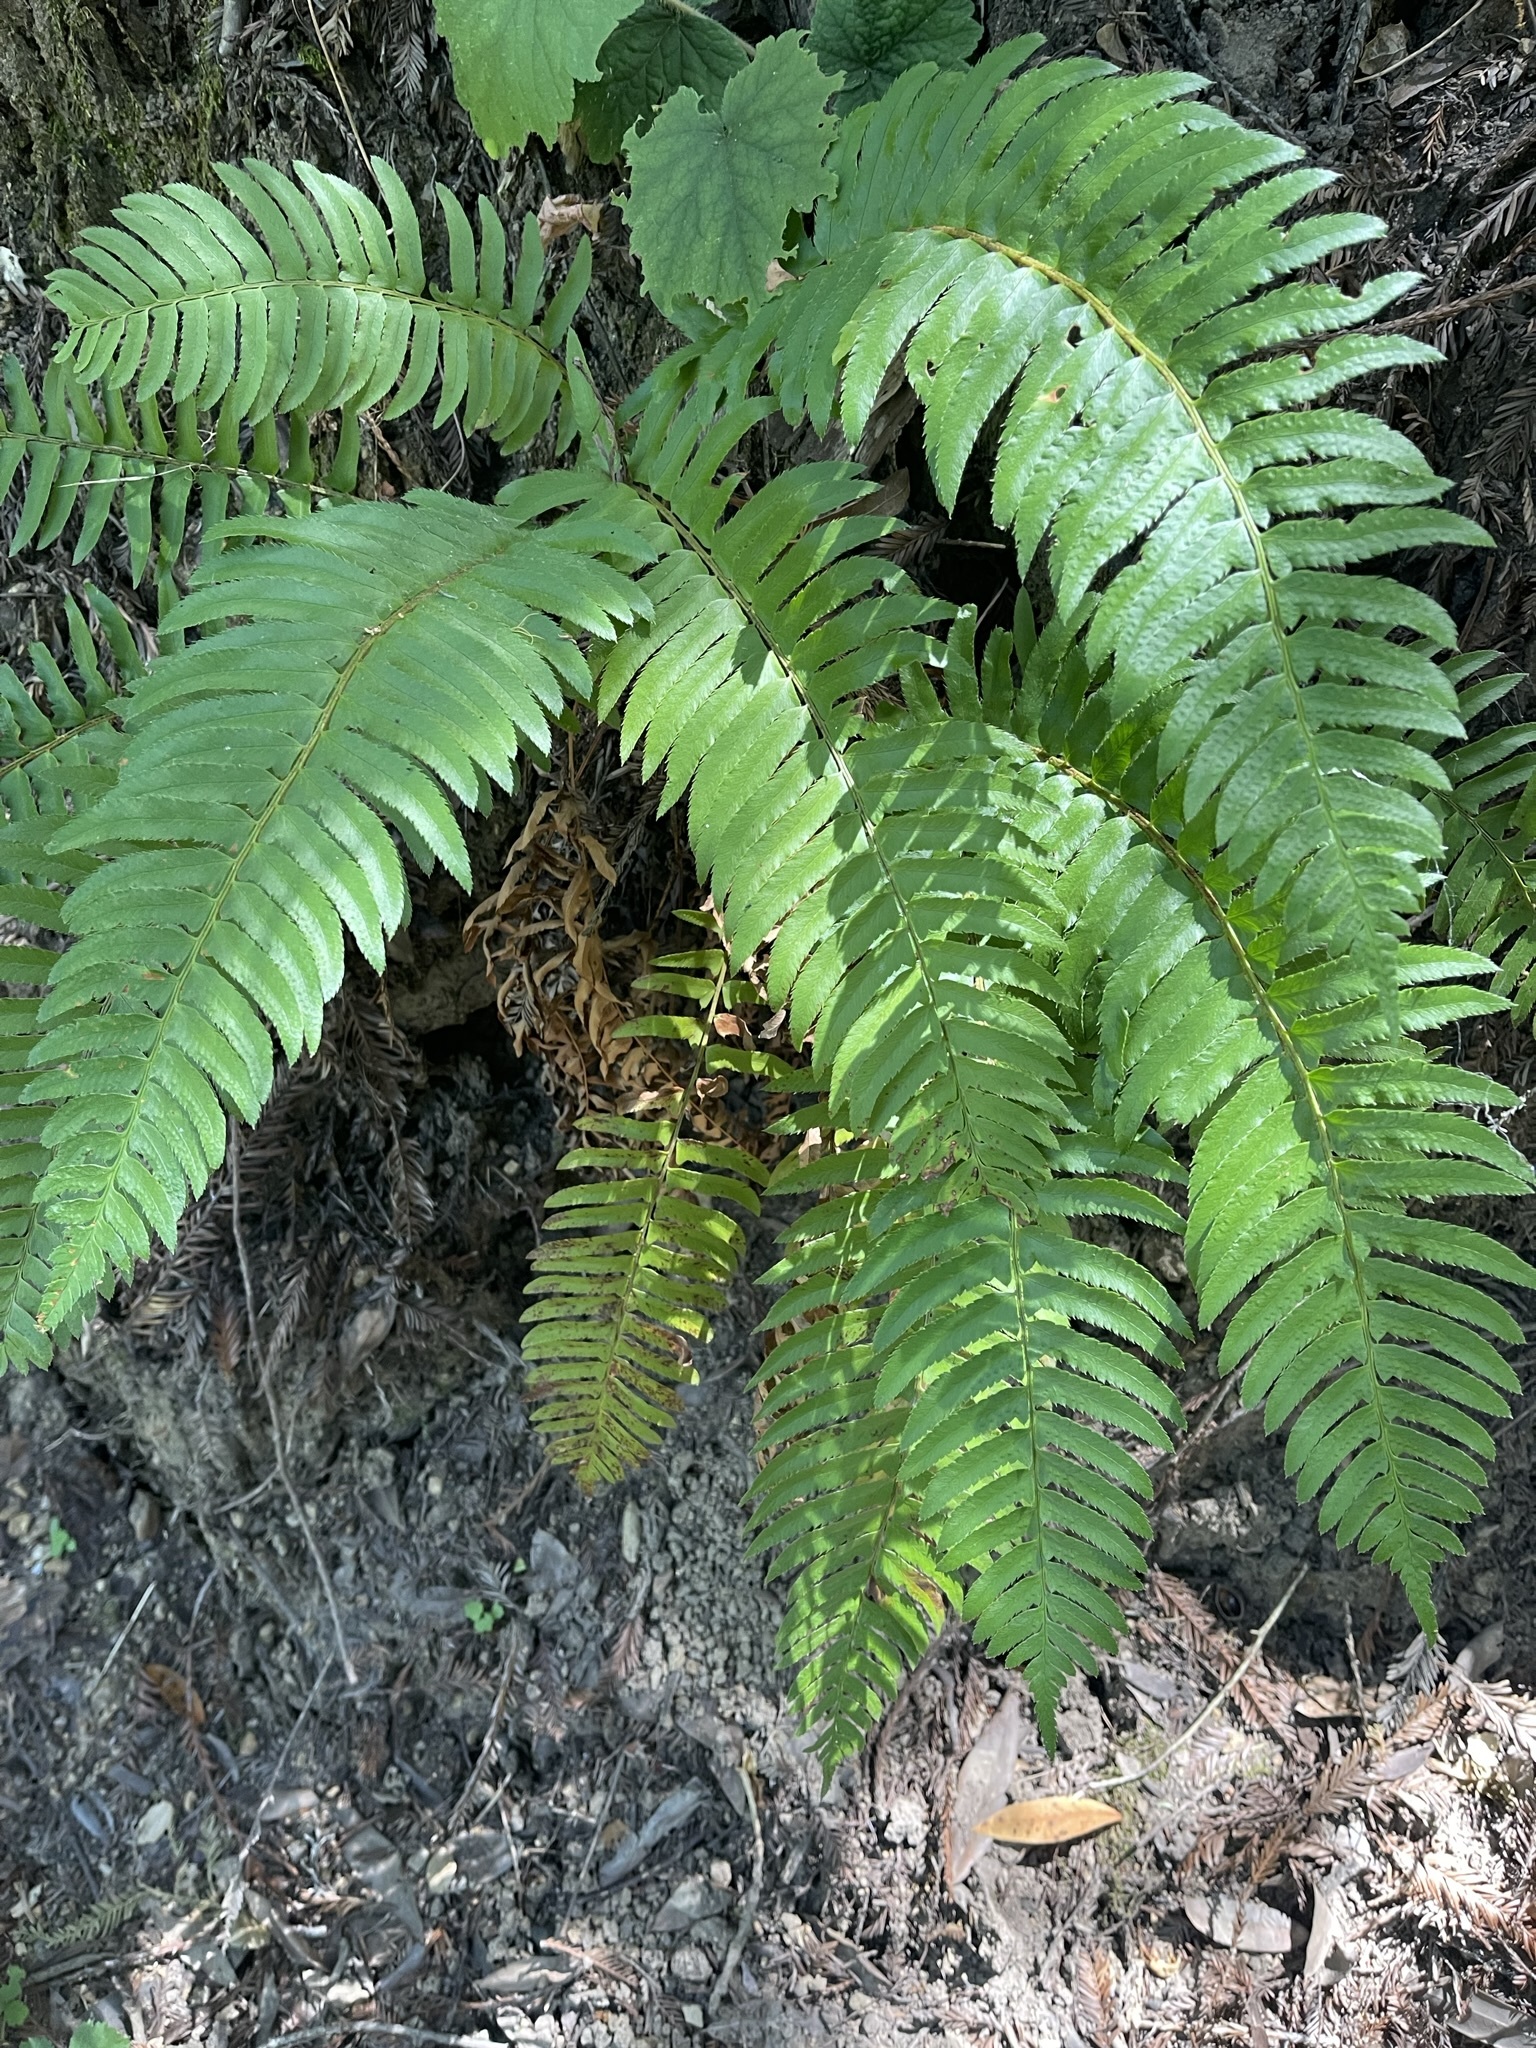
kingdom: Plantae
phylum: Tracheophyta
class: Polypodiopsida
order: Polypodiales
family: Dryopteridaceae
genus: Polystichum
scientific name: Polystichum munitum
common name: Western sword-fern
